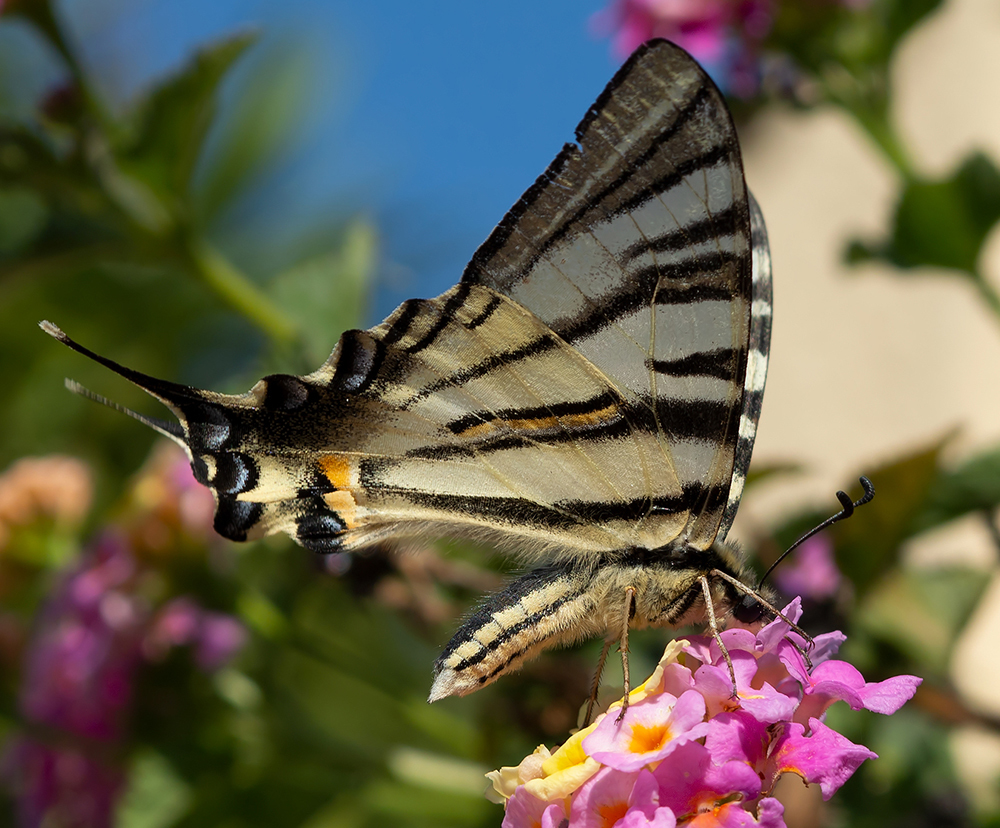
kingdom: Animalia
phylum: Arthropoda
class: Insecta
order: Lepidoptera
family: Papilionidae
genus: Iphiclides
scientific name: Iphiclides podalirius
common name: Scarce swallowtail
